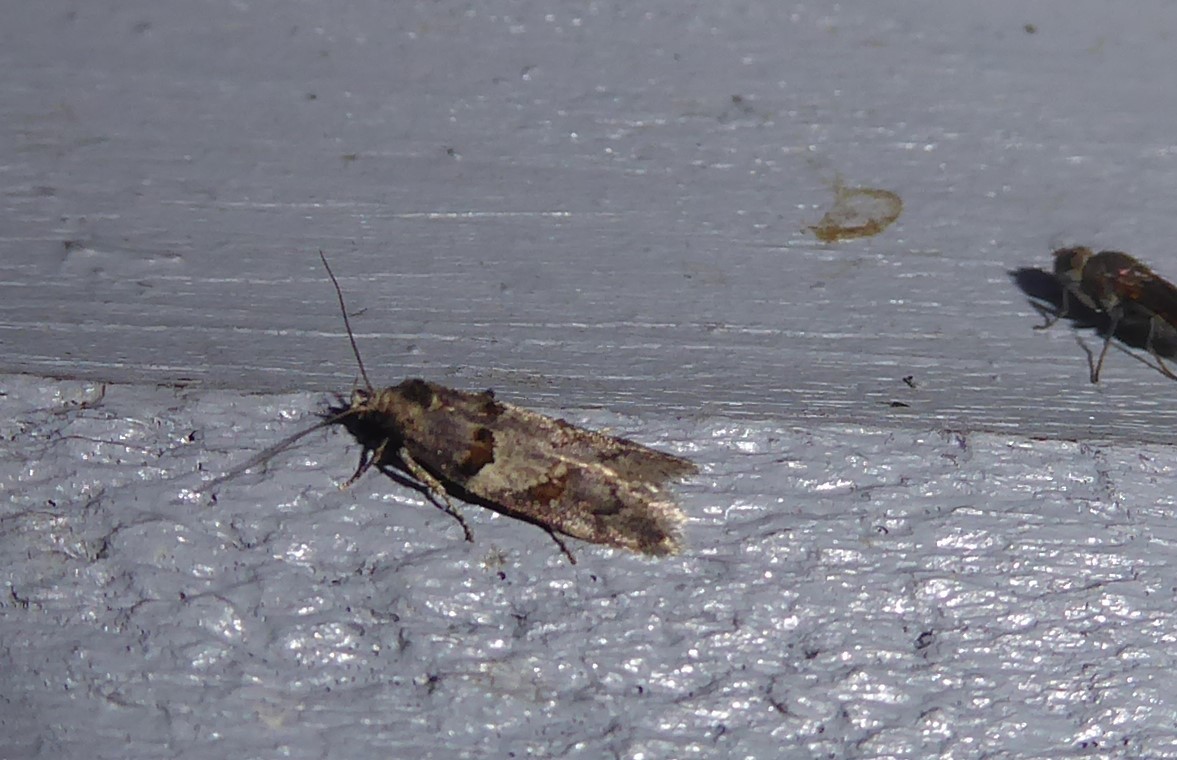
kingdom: Animalia
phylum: Arthropoda
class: Insecta
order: Lepidoptera
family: Oecophoridae
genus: Trachypepla
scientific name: Trachypepla contritella
